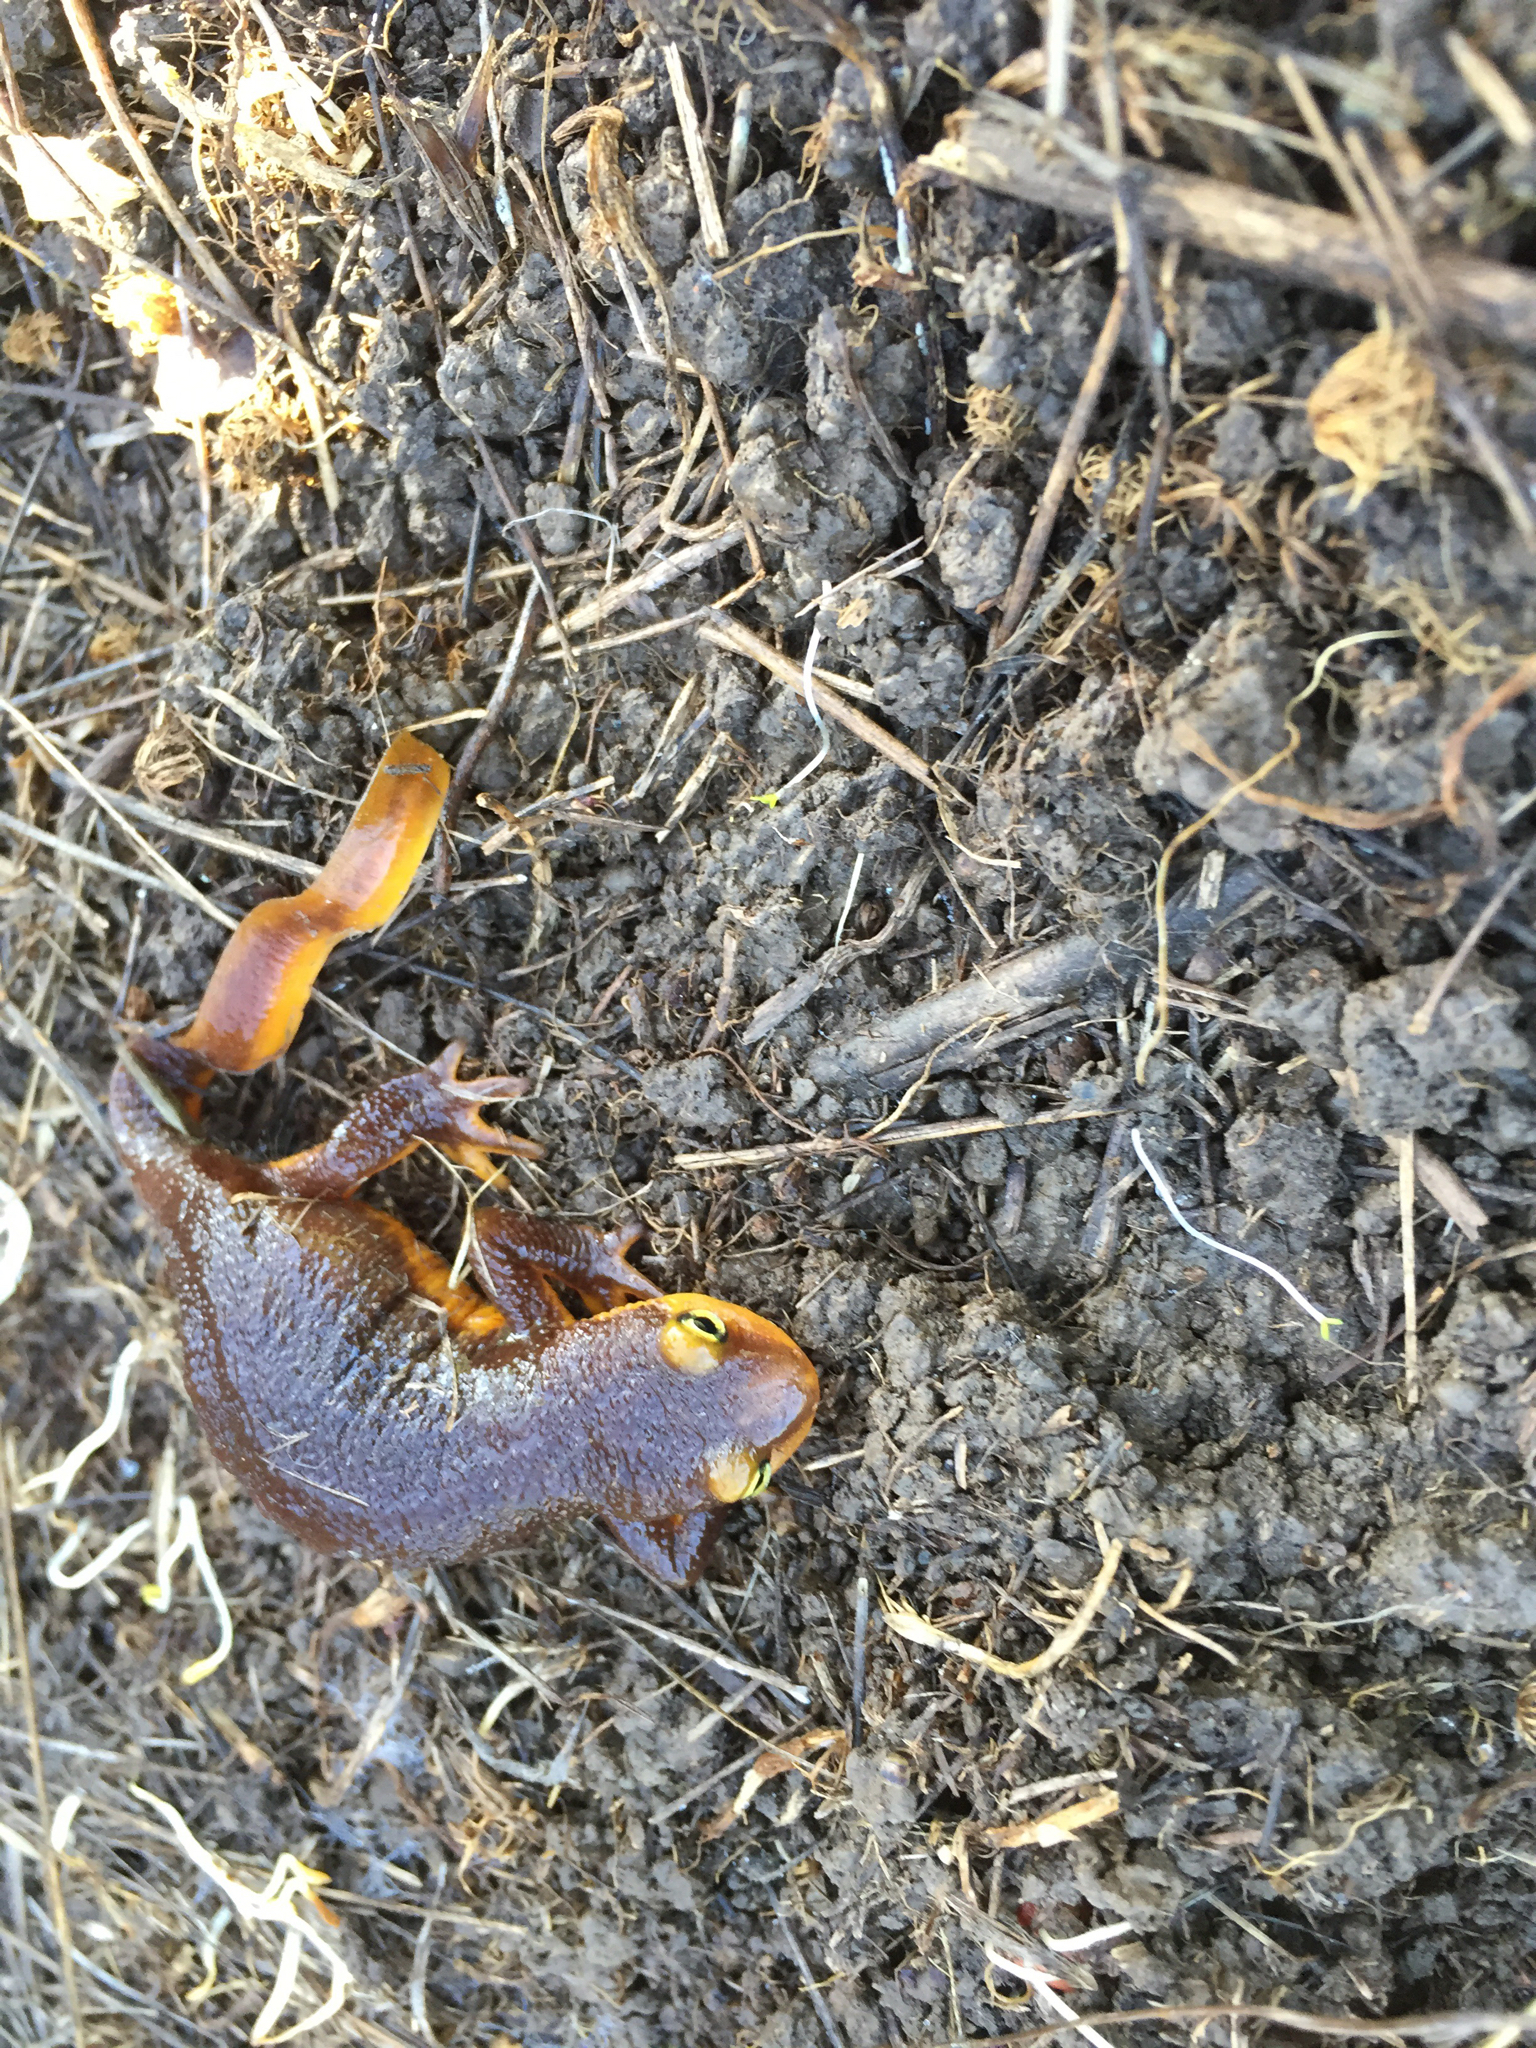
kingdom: Animalia
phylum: Chordata
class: Amphibia
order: Caudata
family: Salamandridae
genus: Taricha
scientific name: Taricha torosa
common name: California newt
